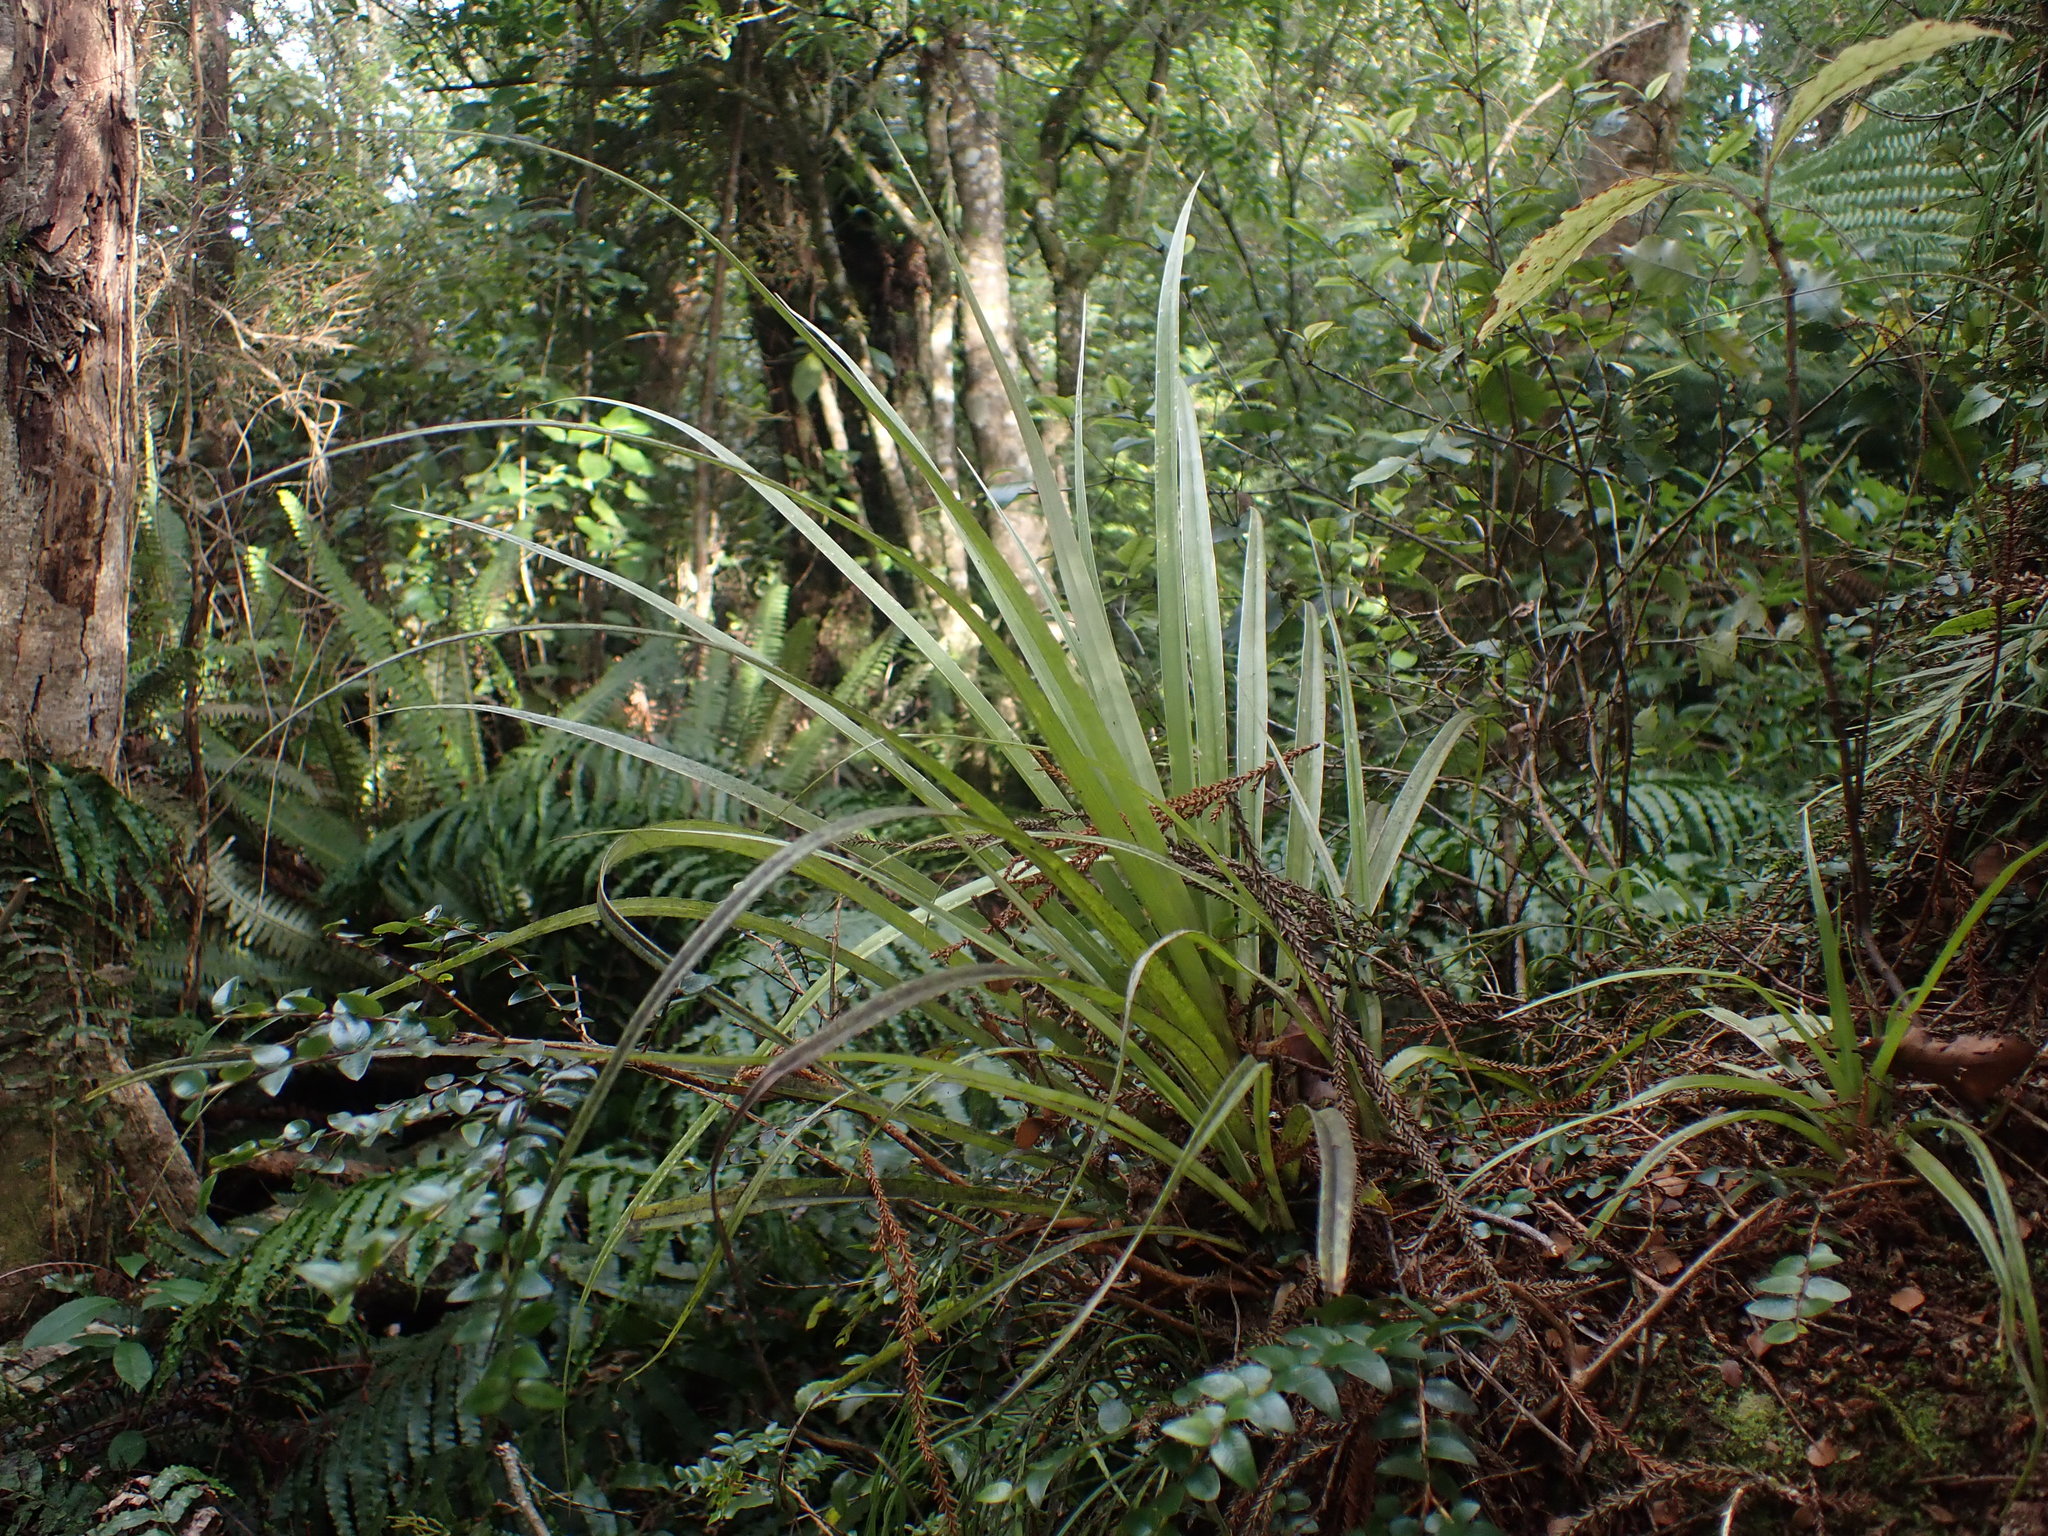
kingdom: Plantae
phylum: Tracheophyta
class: Liliopsida
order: Asparagales
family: Asteliaceae
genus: Astelia
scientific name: Astelia microsperma
